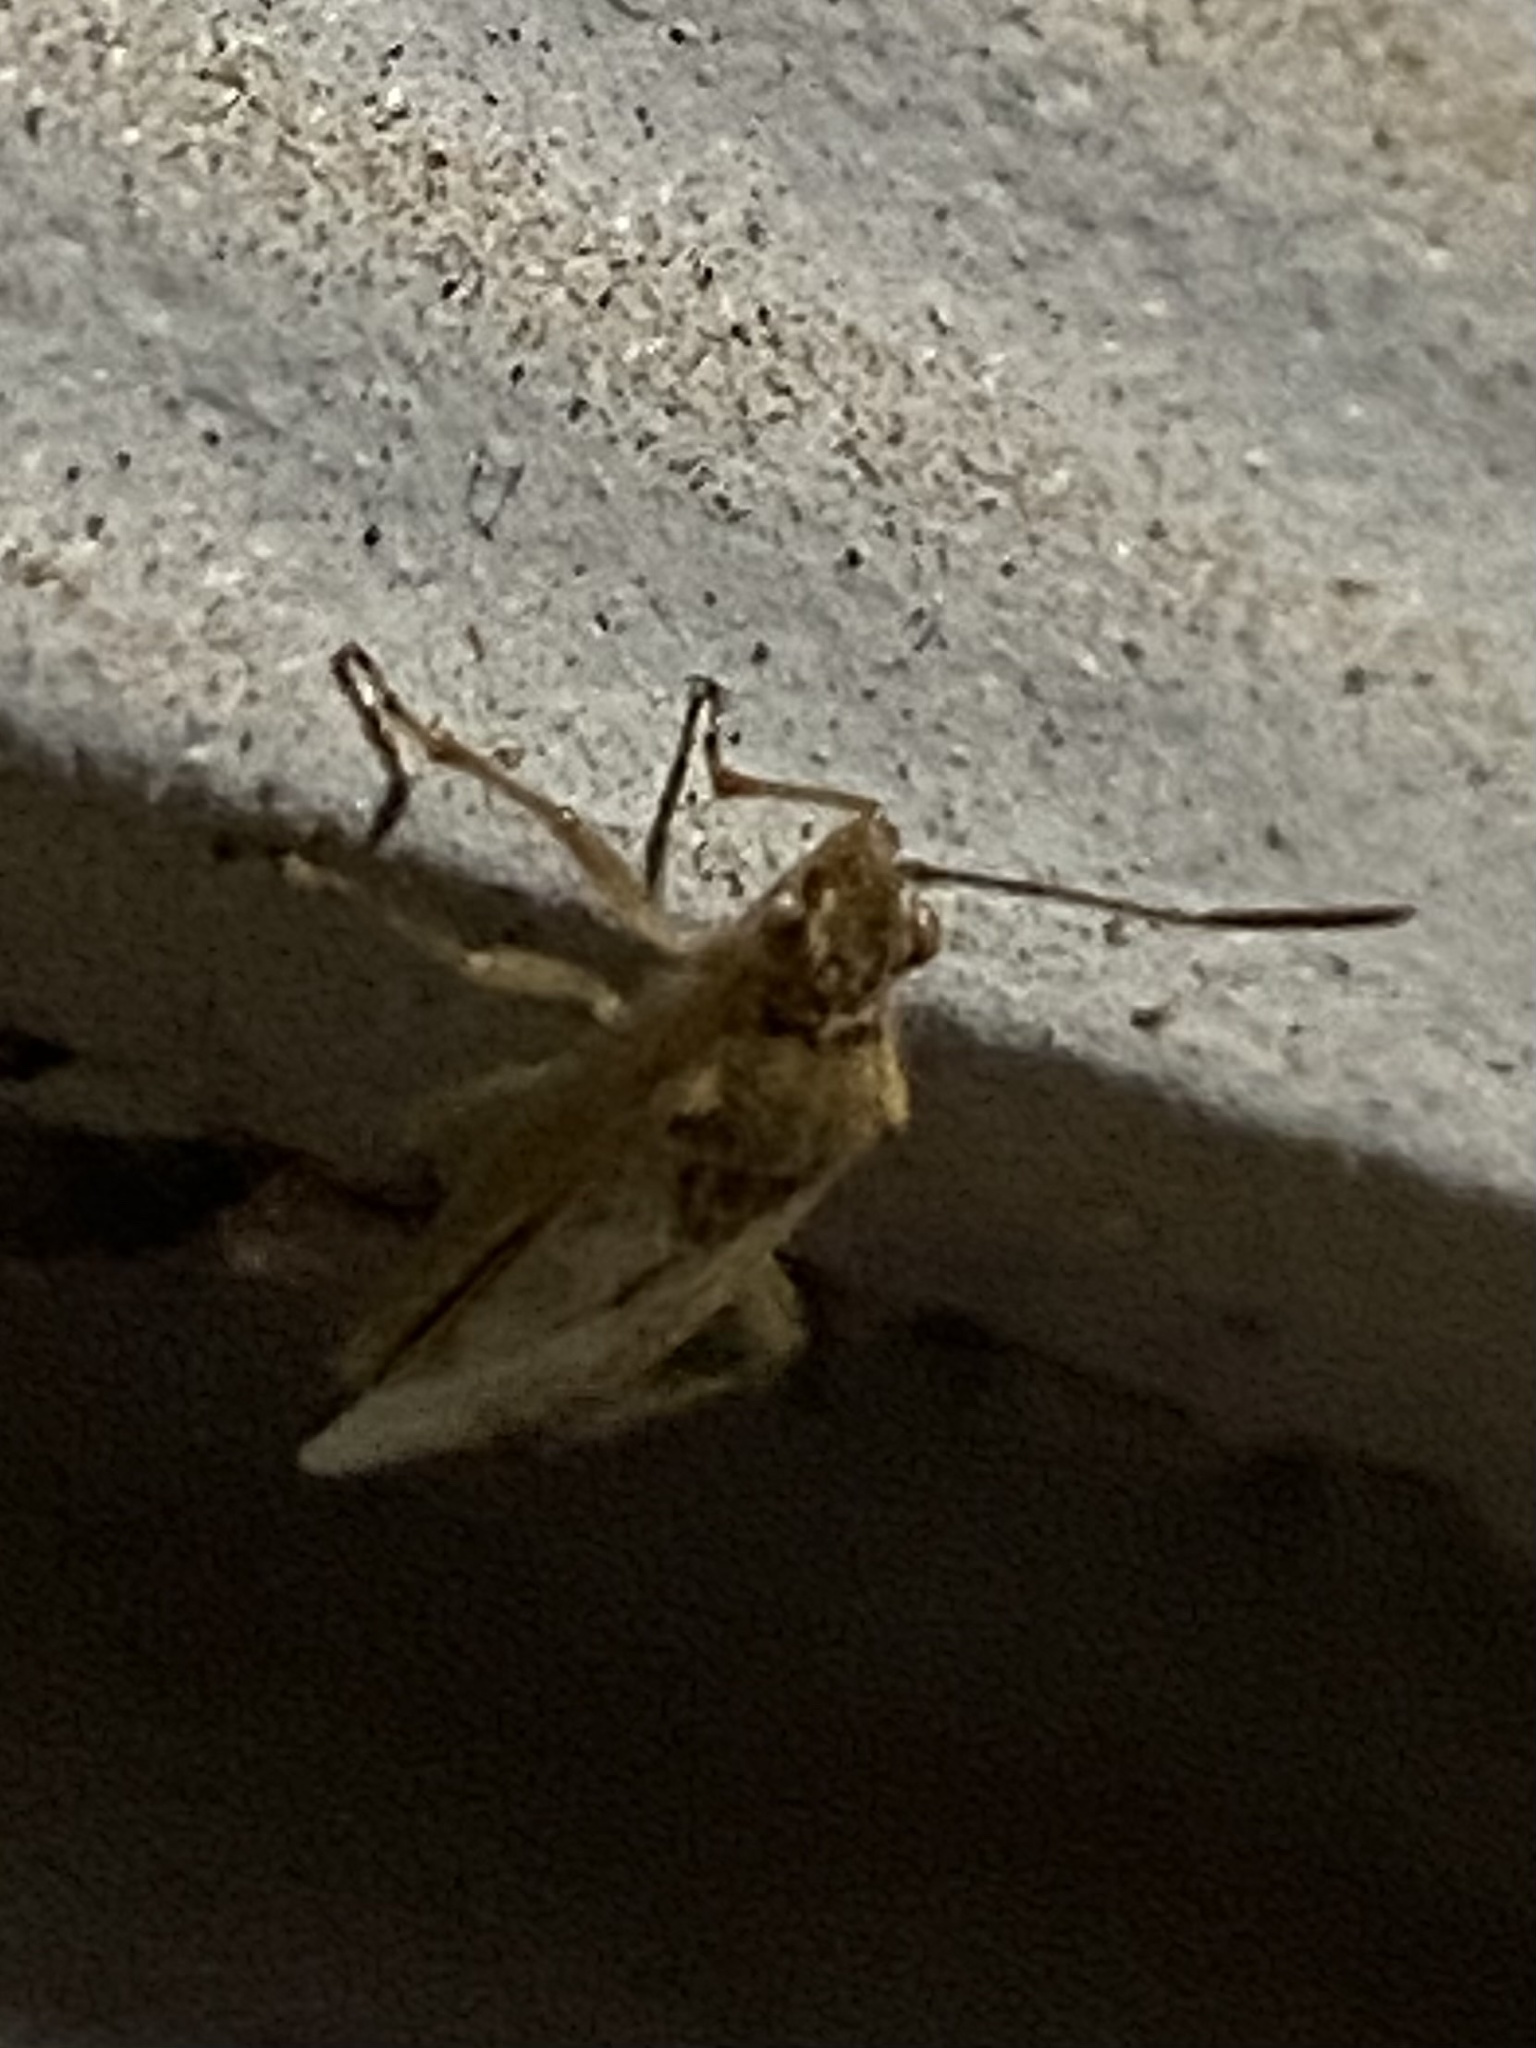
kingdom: Animalia
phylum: Arthropoda
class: Insecta
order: Hemiptera
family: Rhopalidae
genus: Liorhyssus
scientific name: Liorhyssus hyalinus
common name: Scentless plant bug
